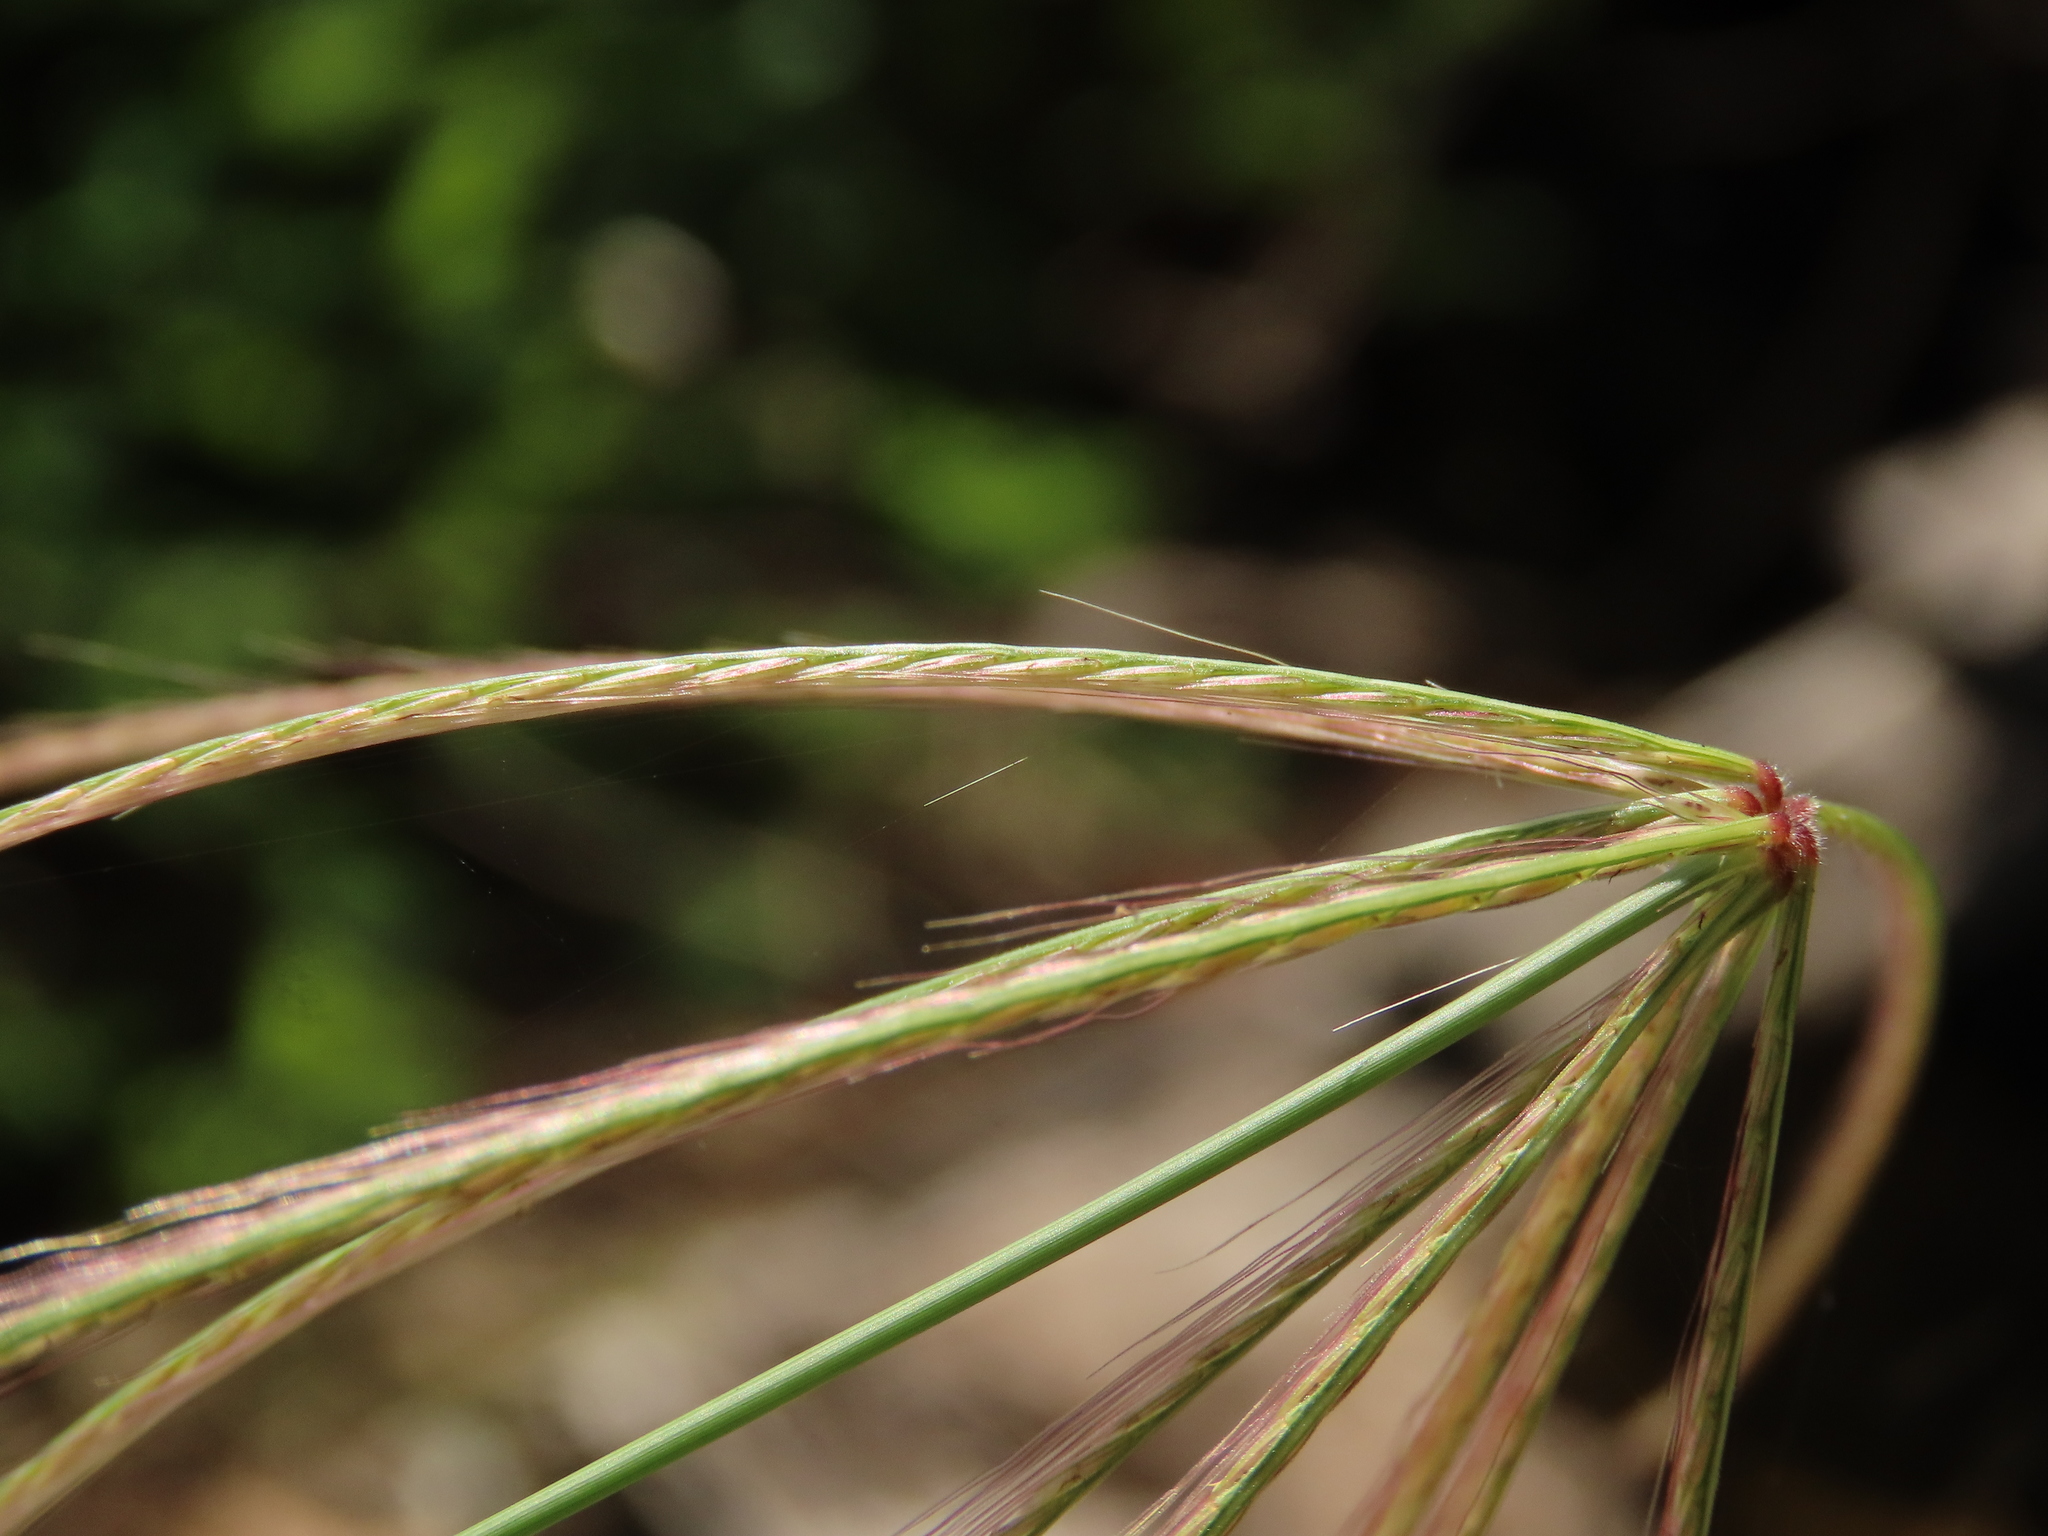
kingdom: Plantae
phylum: Tracheophyta
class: Liliopsida
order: Poales
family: Poaceae
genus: Chloris
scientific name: Chloris divaricata
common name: Spreading windmill grass
